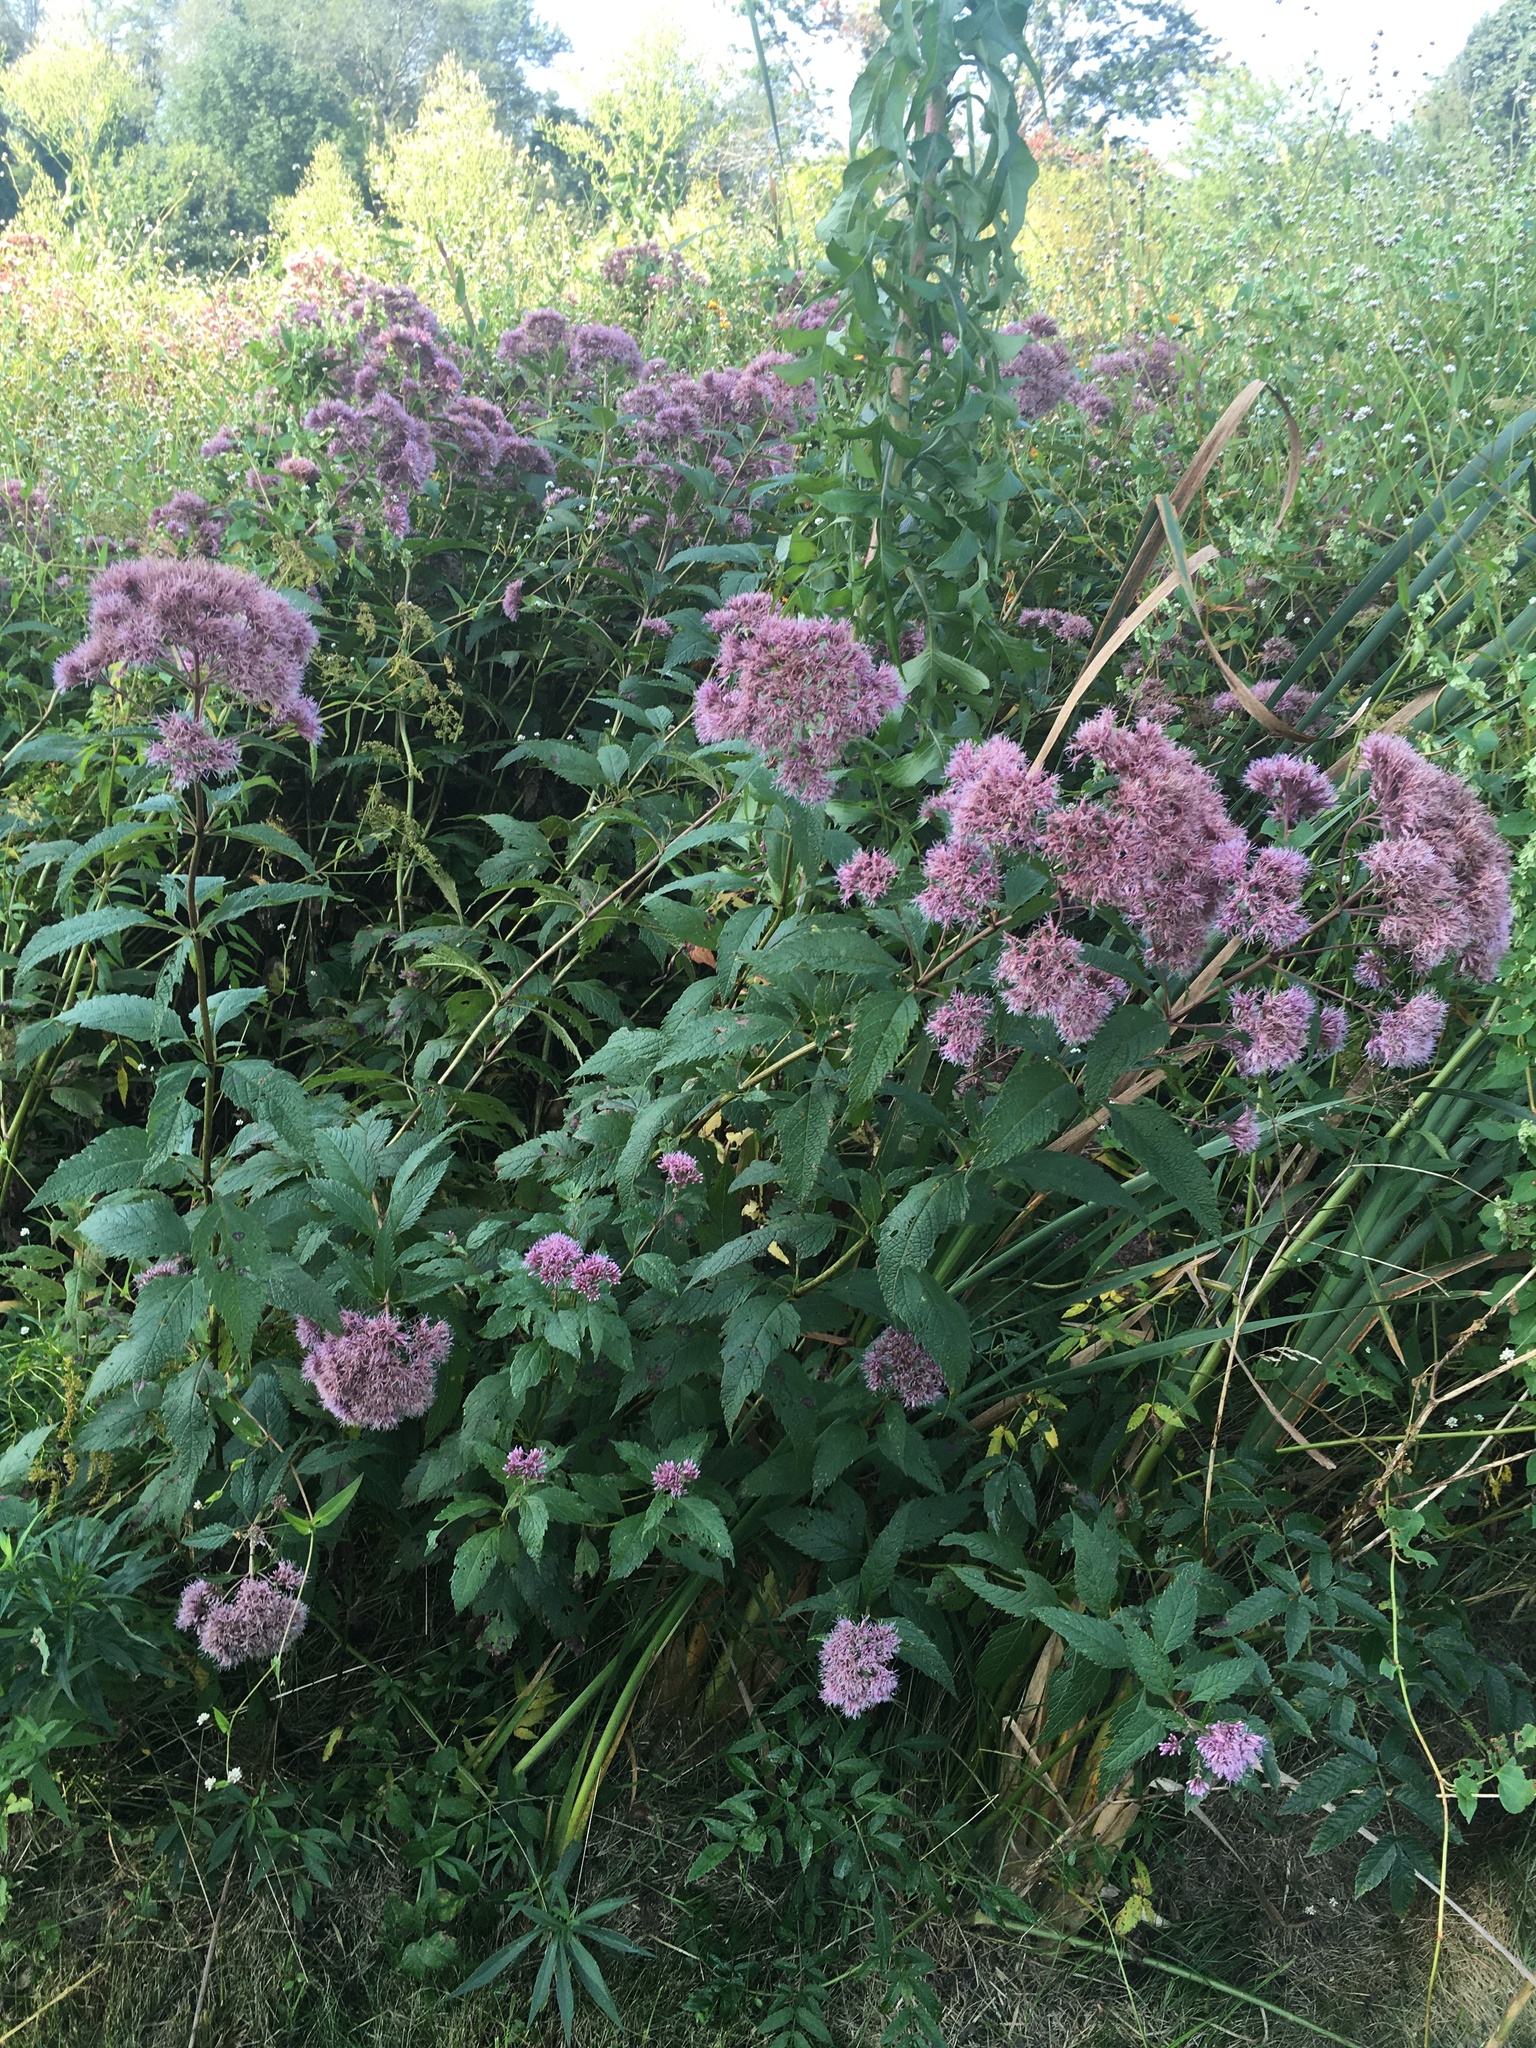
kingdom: Plantae
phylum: Tracheophyta
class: Magnoliopsida
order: Asterales
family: Asteraceae
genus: Eutrochium
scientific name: Eutrochium dubium
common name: Coastal plain joe pye weed
